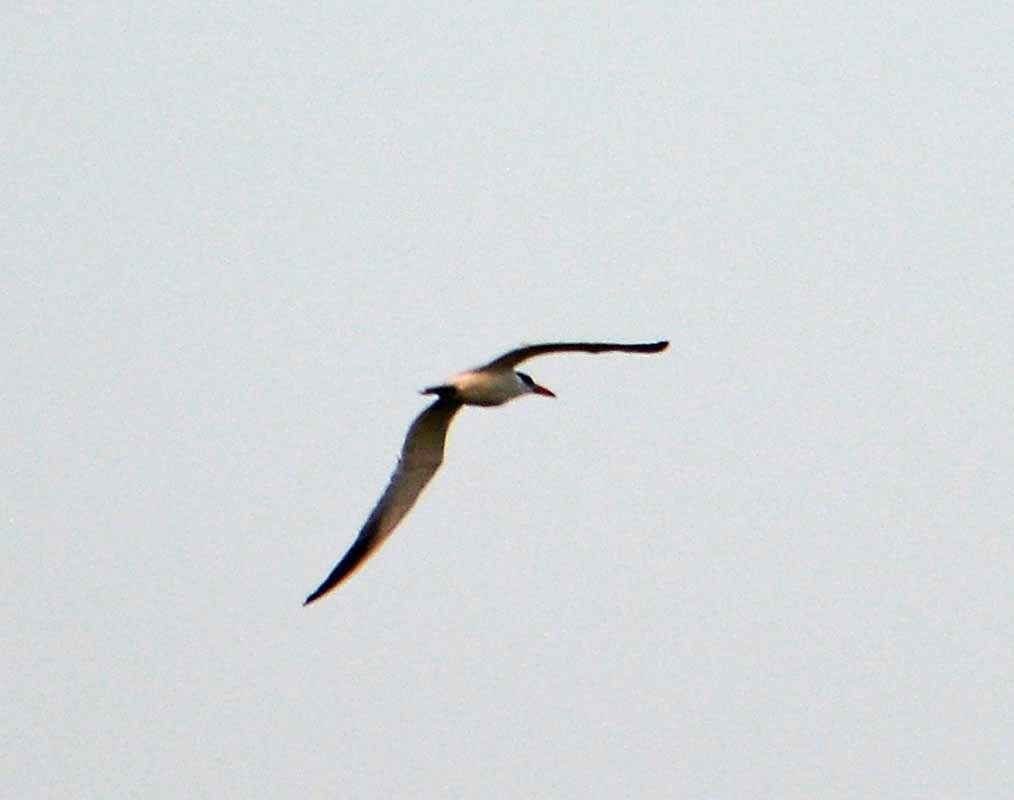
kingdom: Animalia
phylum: Chordata
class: Aves
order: Charadriiformes
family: Laridae
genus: Hydroprogne
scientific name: Hydroprogne caspia
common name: Caspian tern
